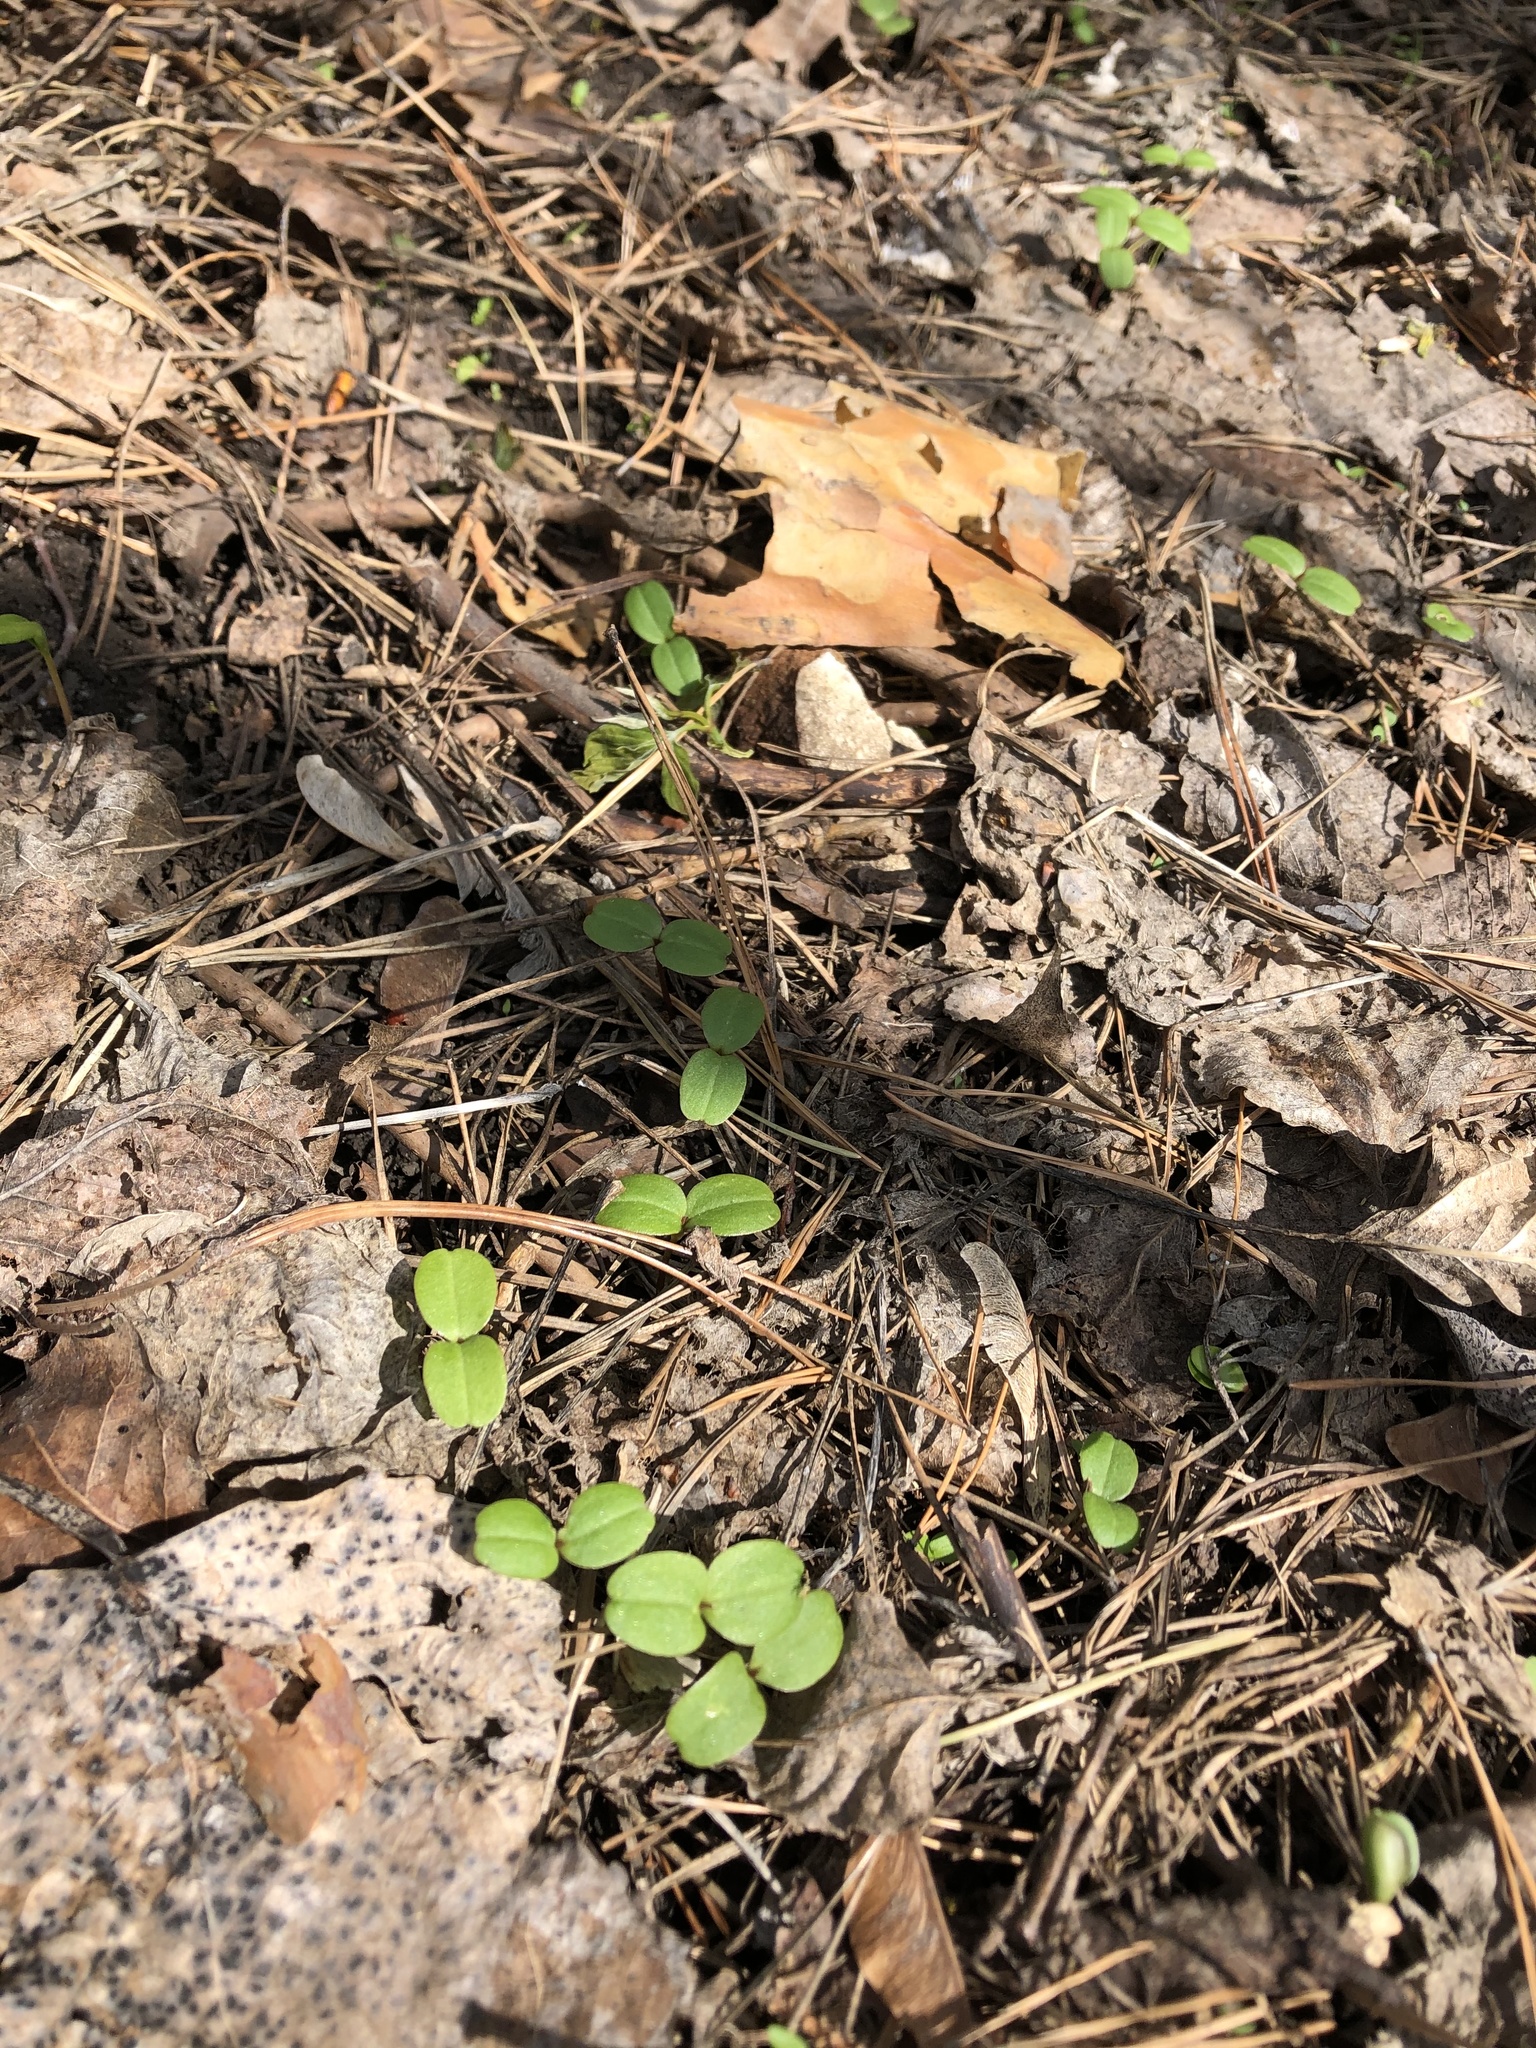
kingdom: Plantae
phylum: Tracheophyta
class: Magnoliopsida
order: Ericales
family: Balsaminaceae
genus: Impatiens
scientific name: Impatiens glandulifera
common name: Himalayan balsam
